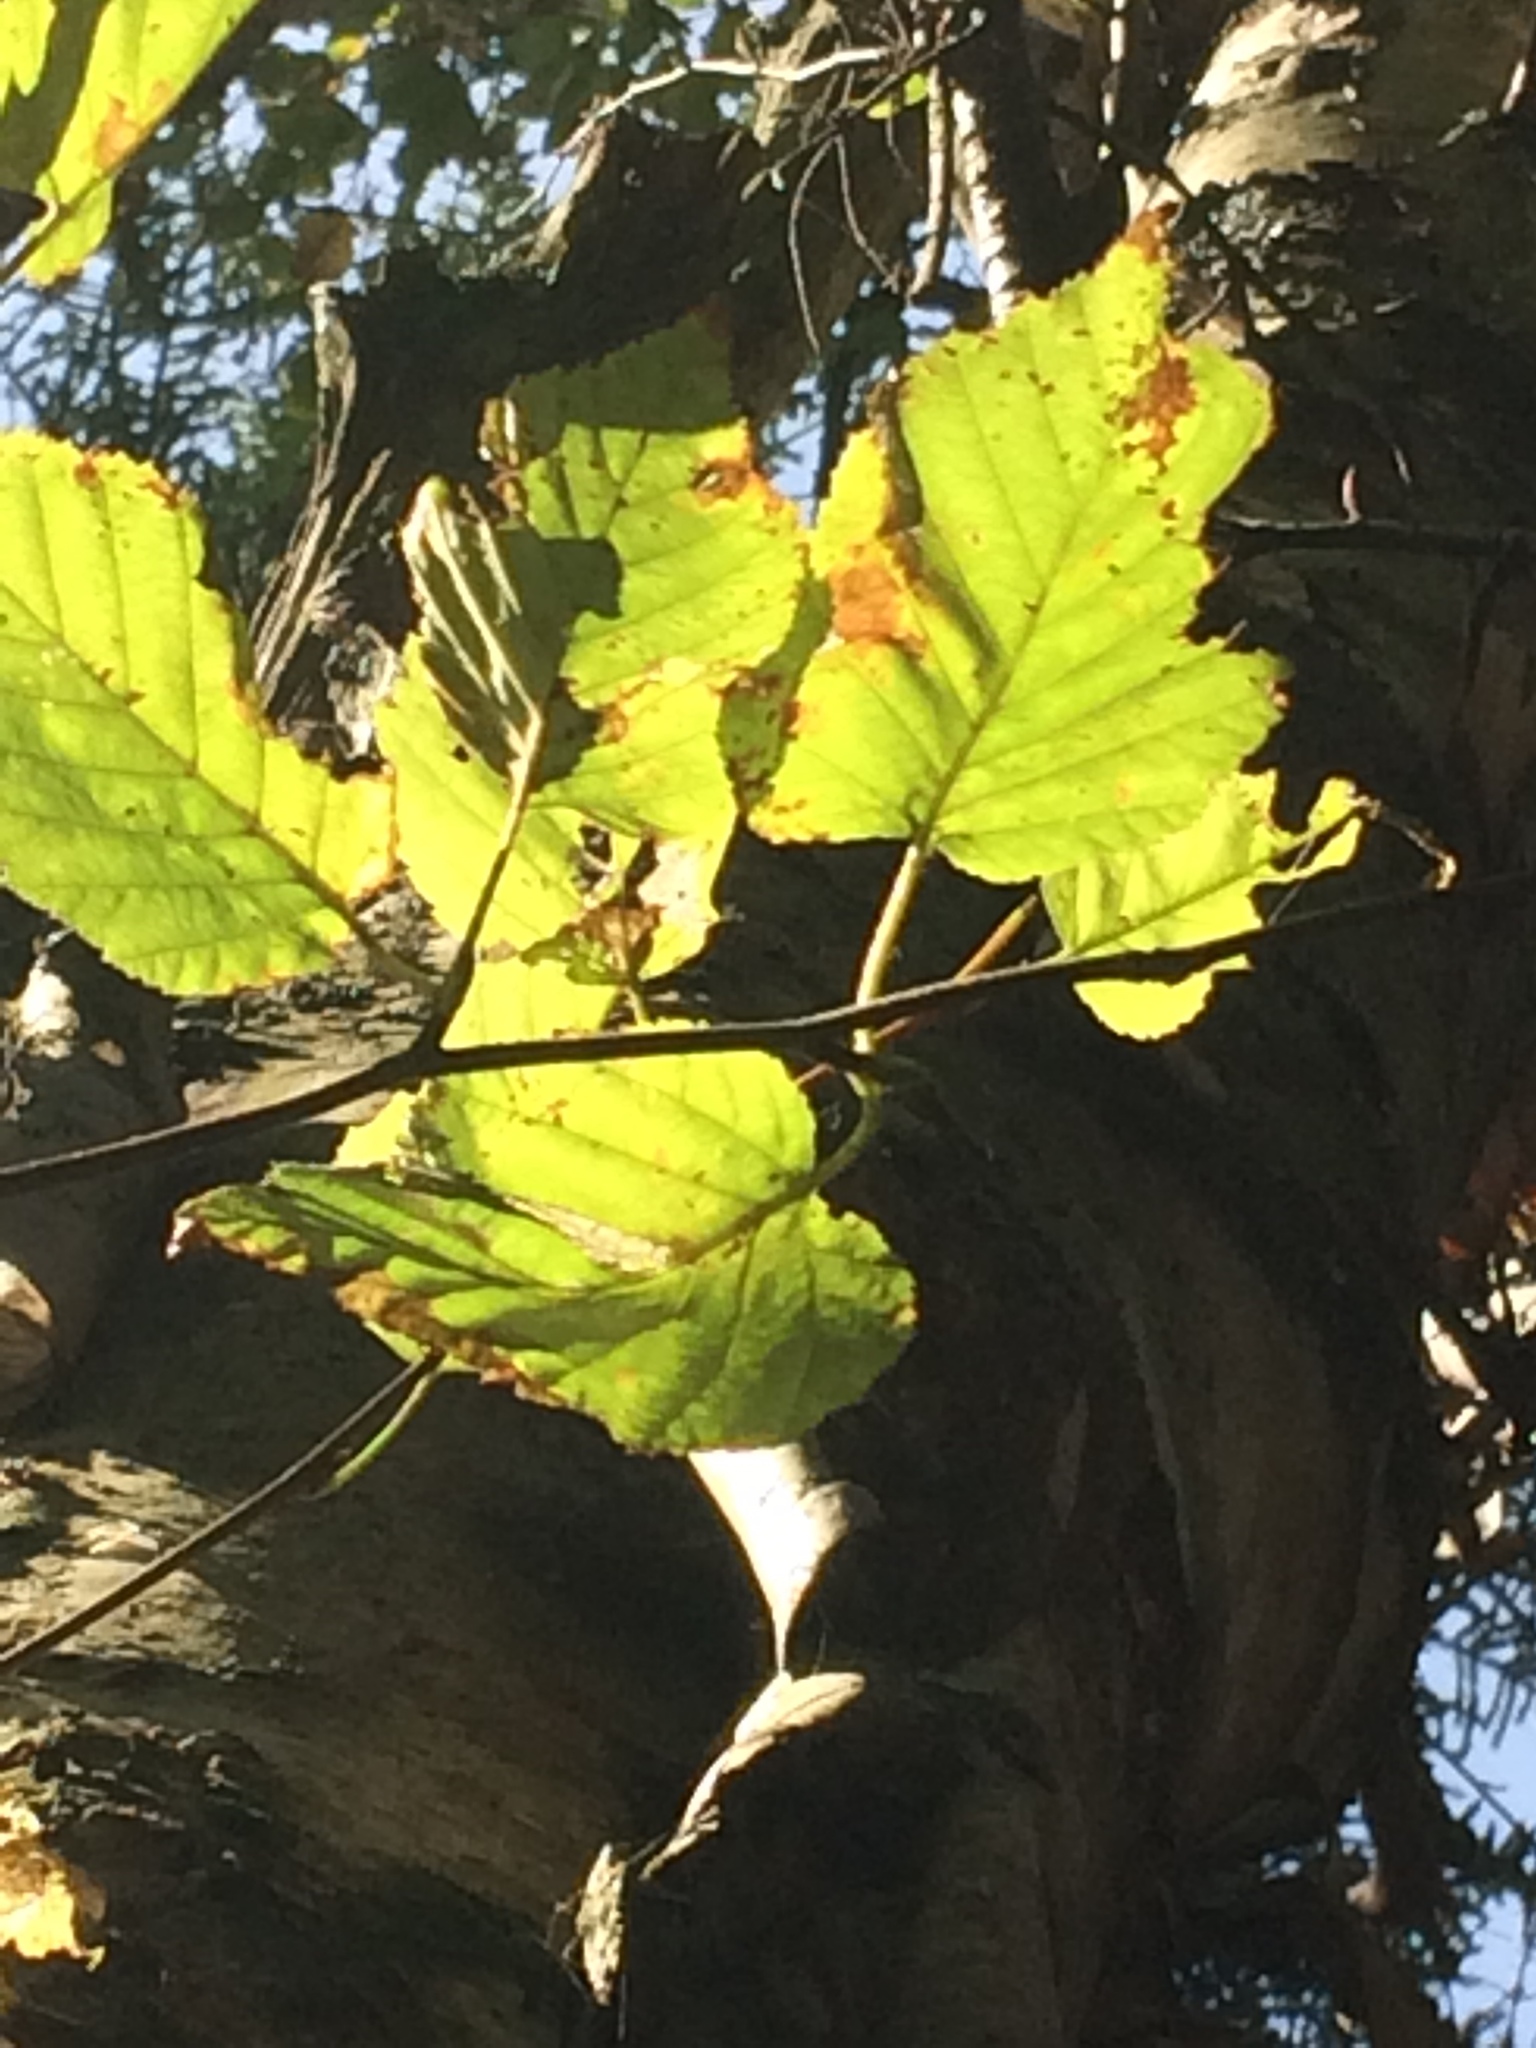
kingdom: Plantae
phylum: Tracheophyta
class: Magnoliopsida
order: Fagales
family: Betulaceae
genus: Betula
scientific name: Betula cordifolia
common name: Mountain white birch
